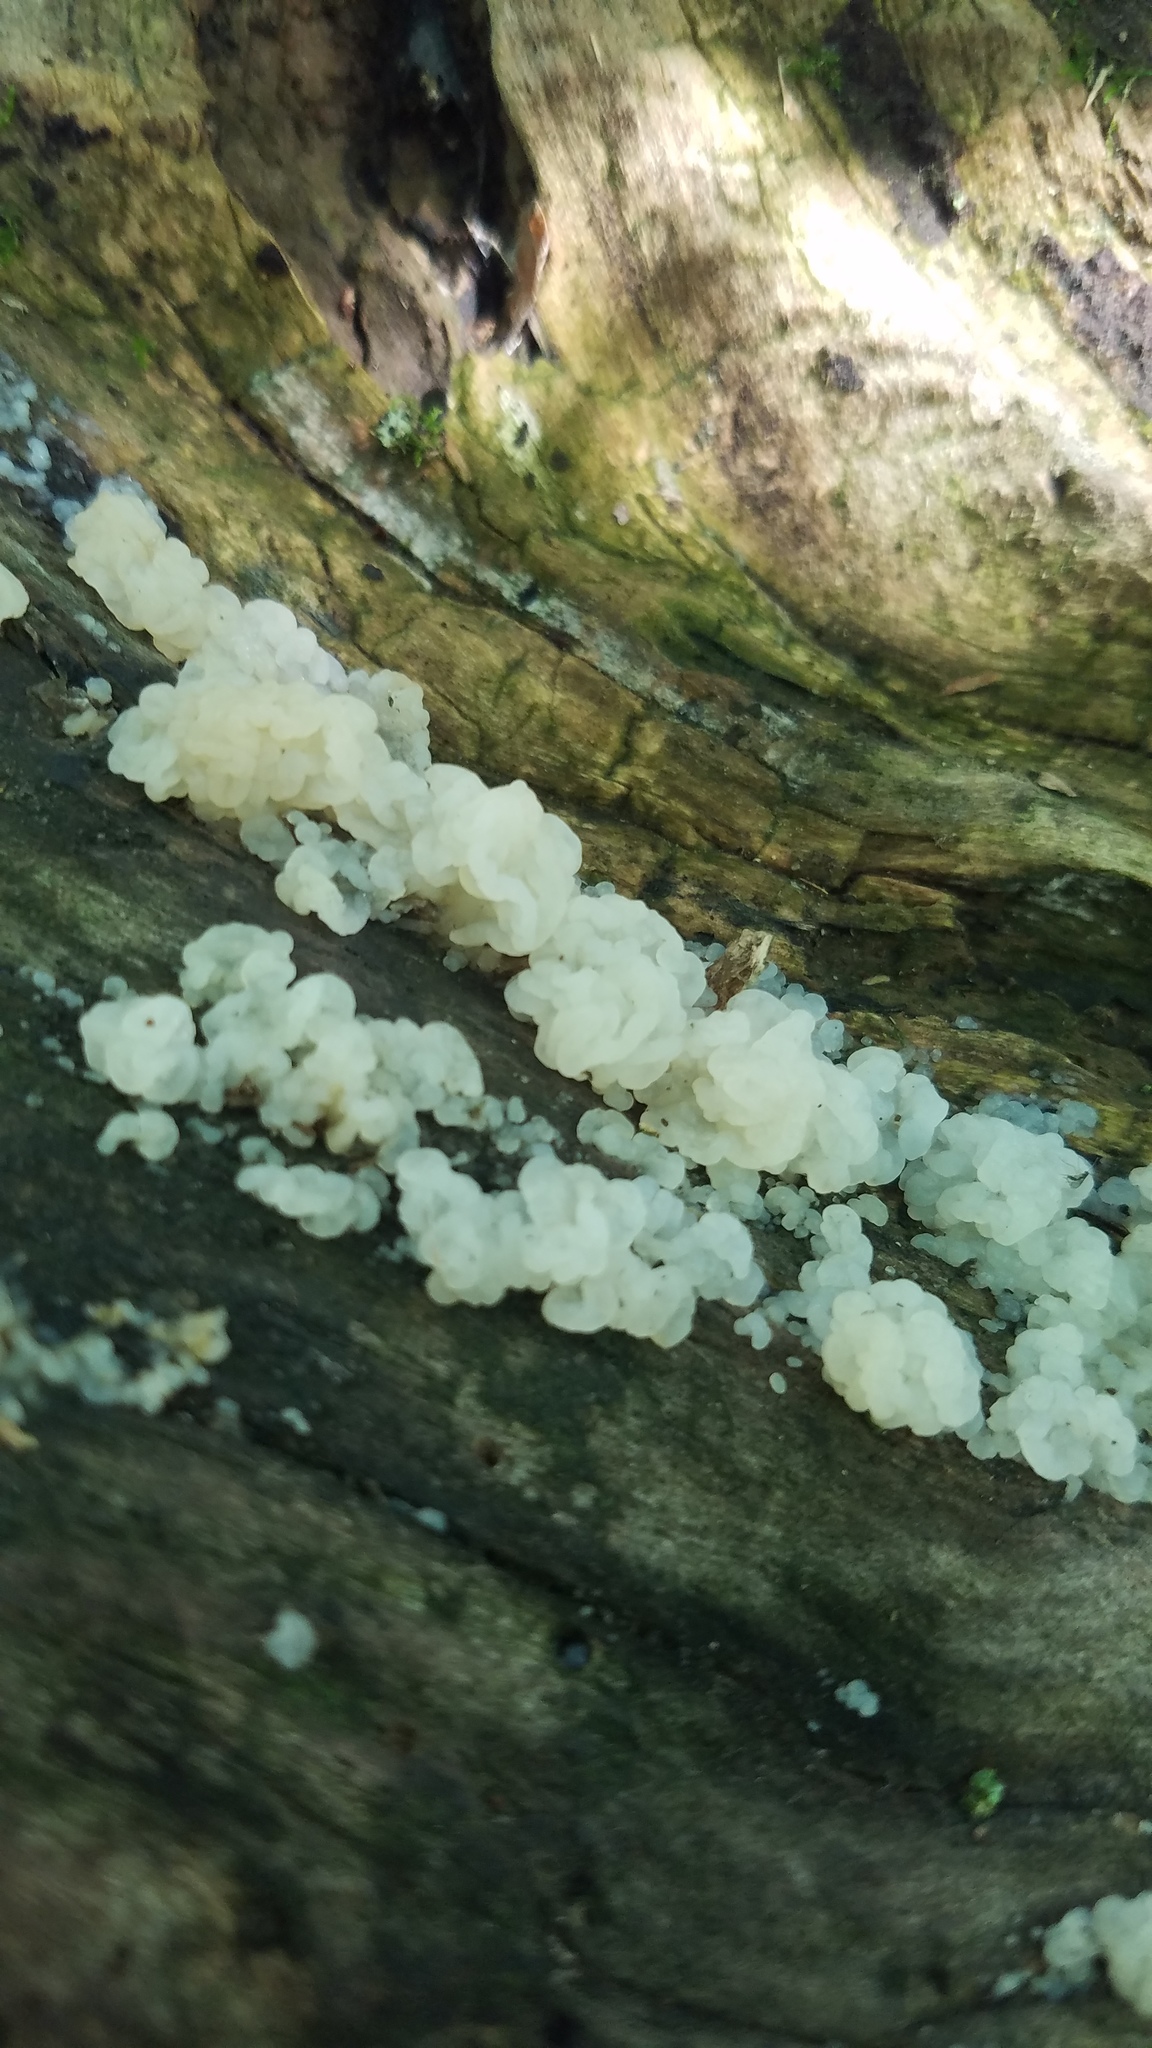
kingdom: Fungi
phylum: Basidiomycota
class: Agaricomycetes
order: Auriculariales
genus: Ductifera
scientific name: Ductifera pululahuana
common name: White jelly fungus
